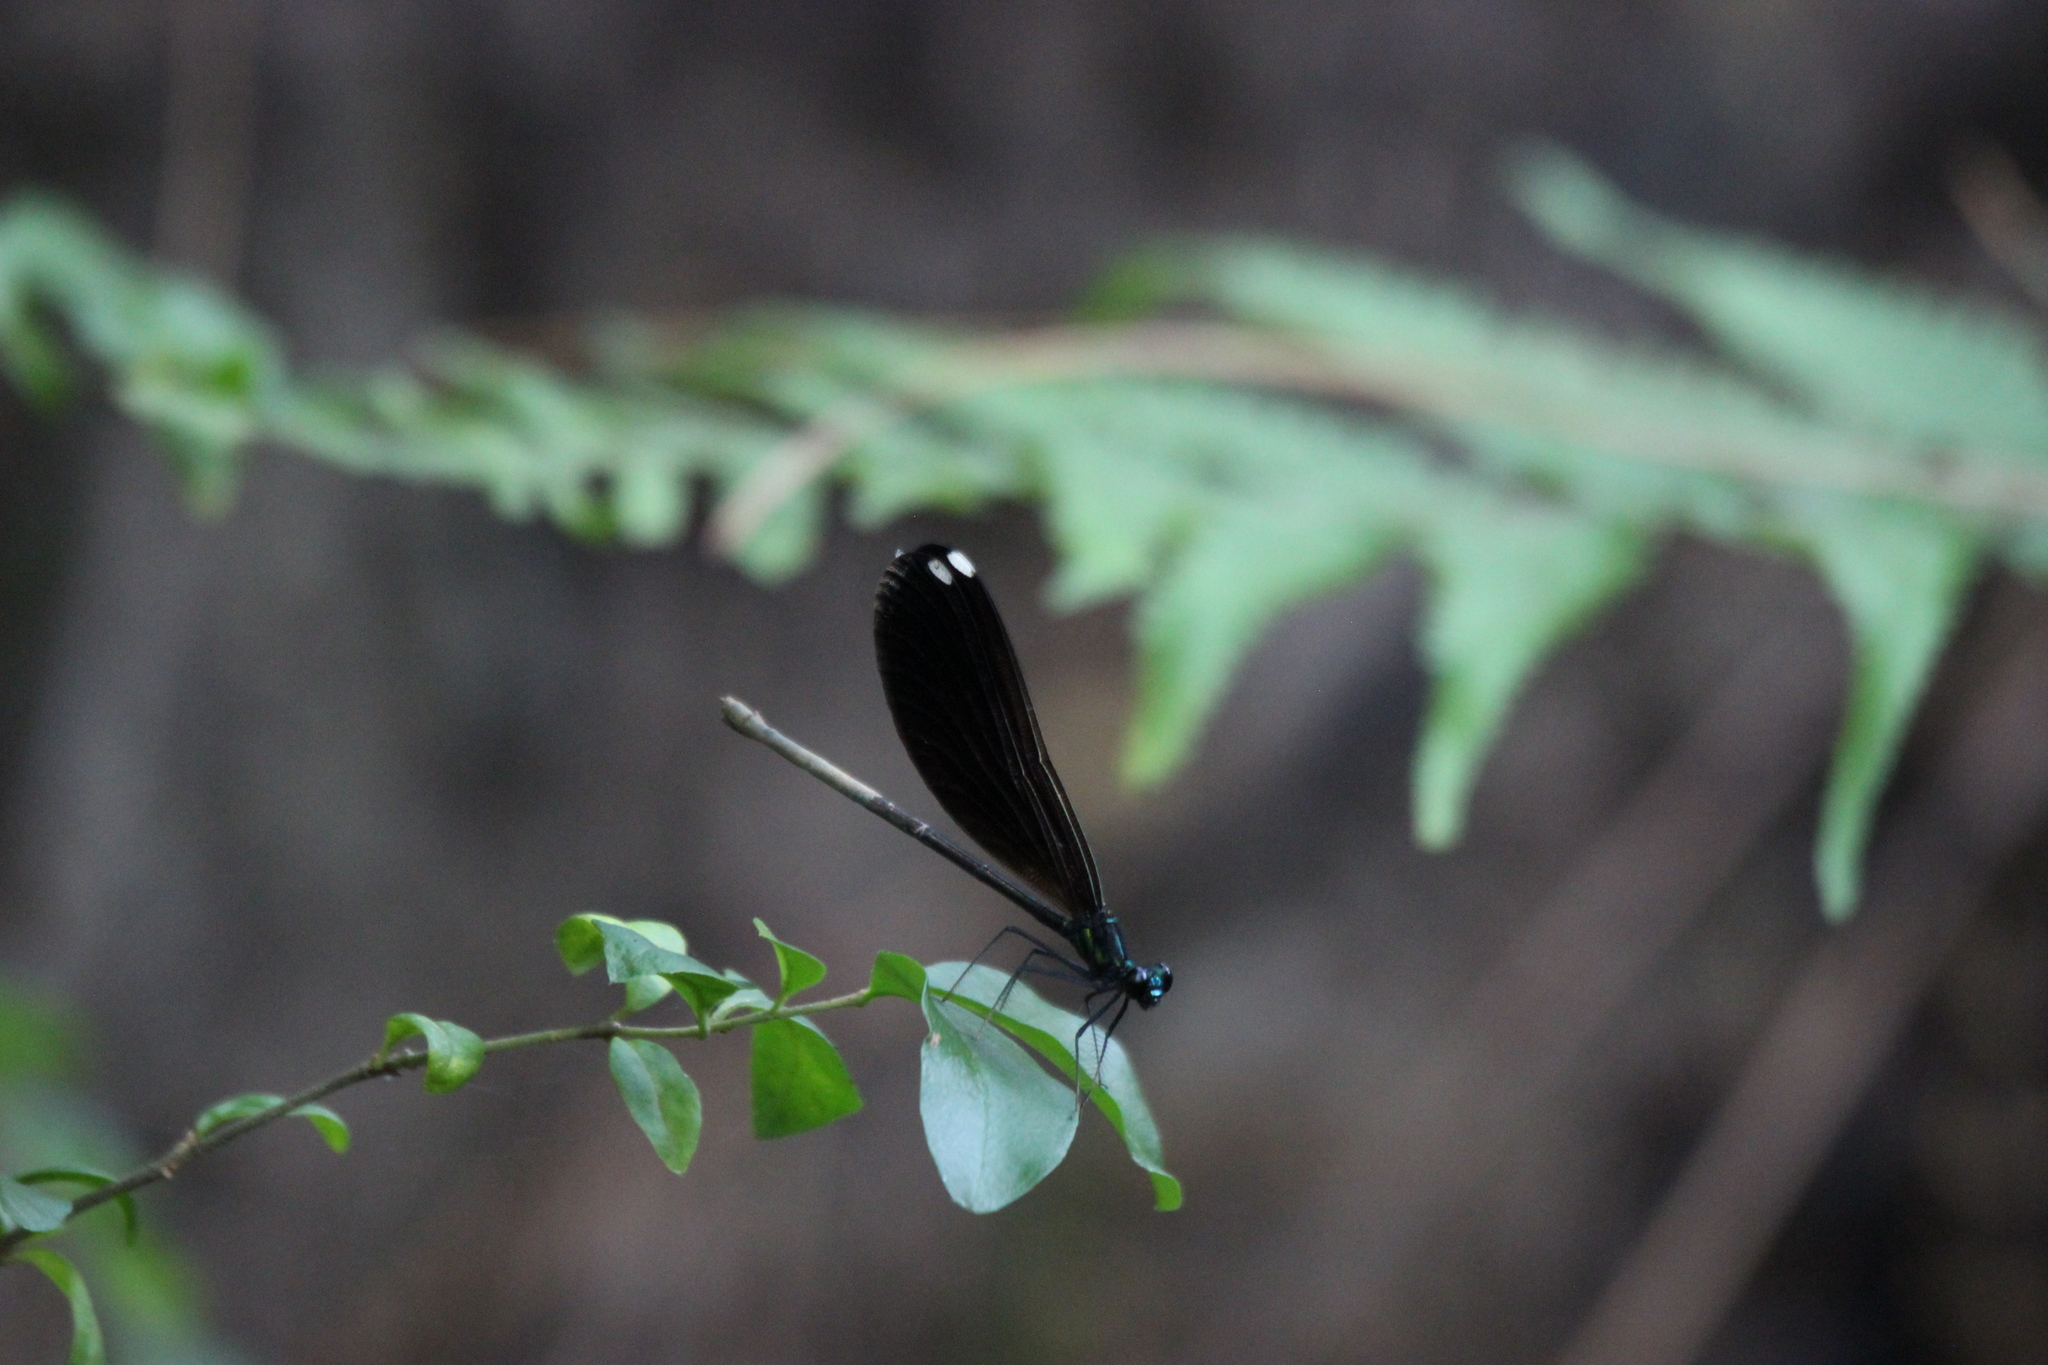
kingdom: Animalia
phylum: Arthropoda
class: Insecta
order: Odonata
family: Calopterygidae
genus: Calopteryx
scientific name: Calopteryx maculata
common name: Ebony jewelwing
